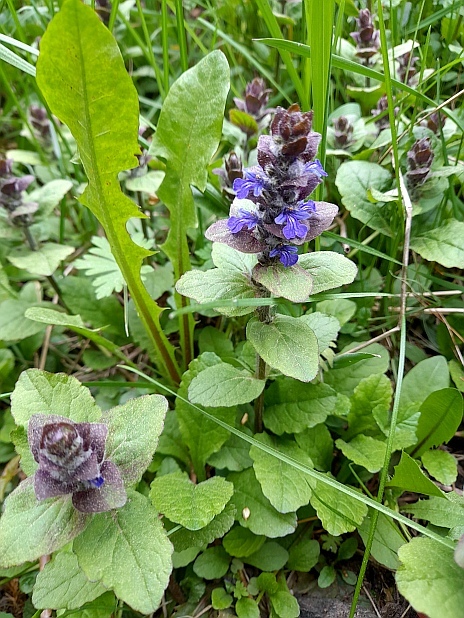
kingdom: Plantae
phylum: Tracheophyta
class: Magnoliopsida
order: Lamiales
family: Lamiaceae
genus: Ajuga
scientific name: Ajuga reptans
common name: Bugle
